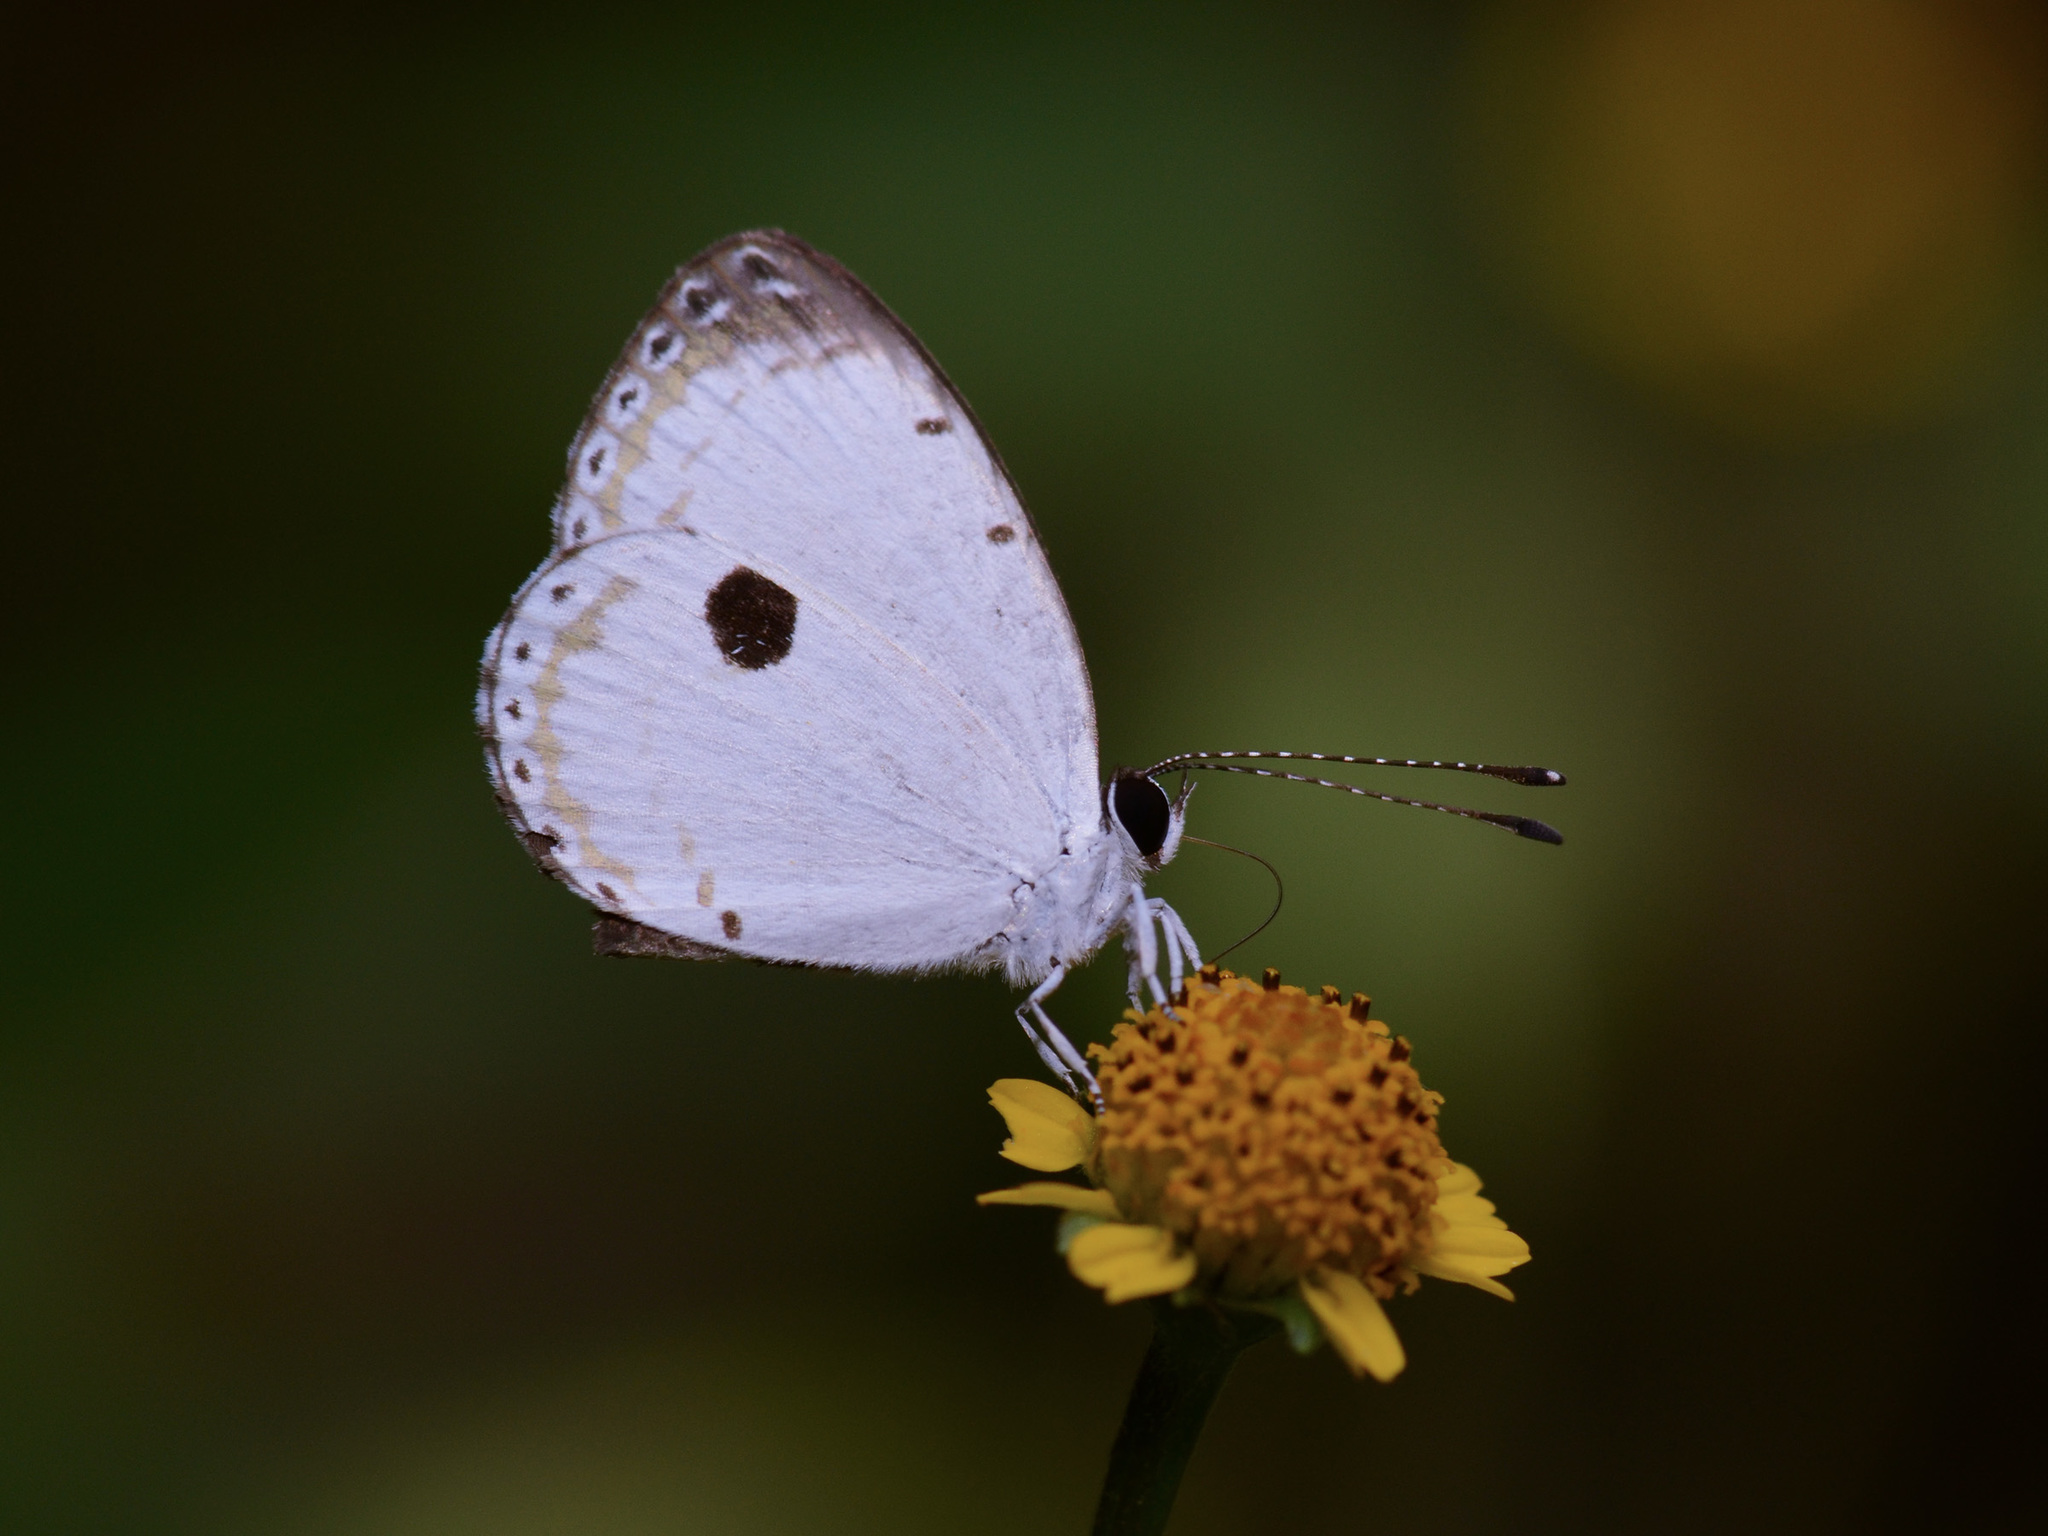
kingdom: Animalia
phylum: Arthropoda
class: Insecta
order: Lepidoptera
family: Lycaenidae
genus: Pithecops
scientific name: Pithecops corvus
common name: Forest quaker
